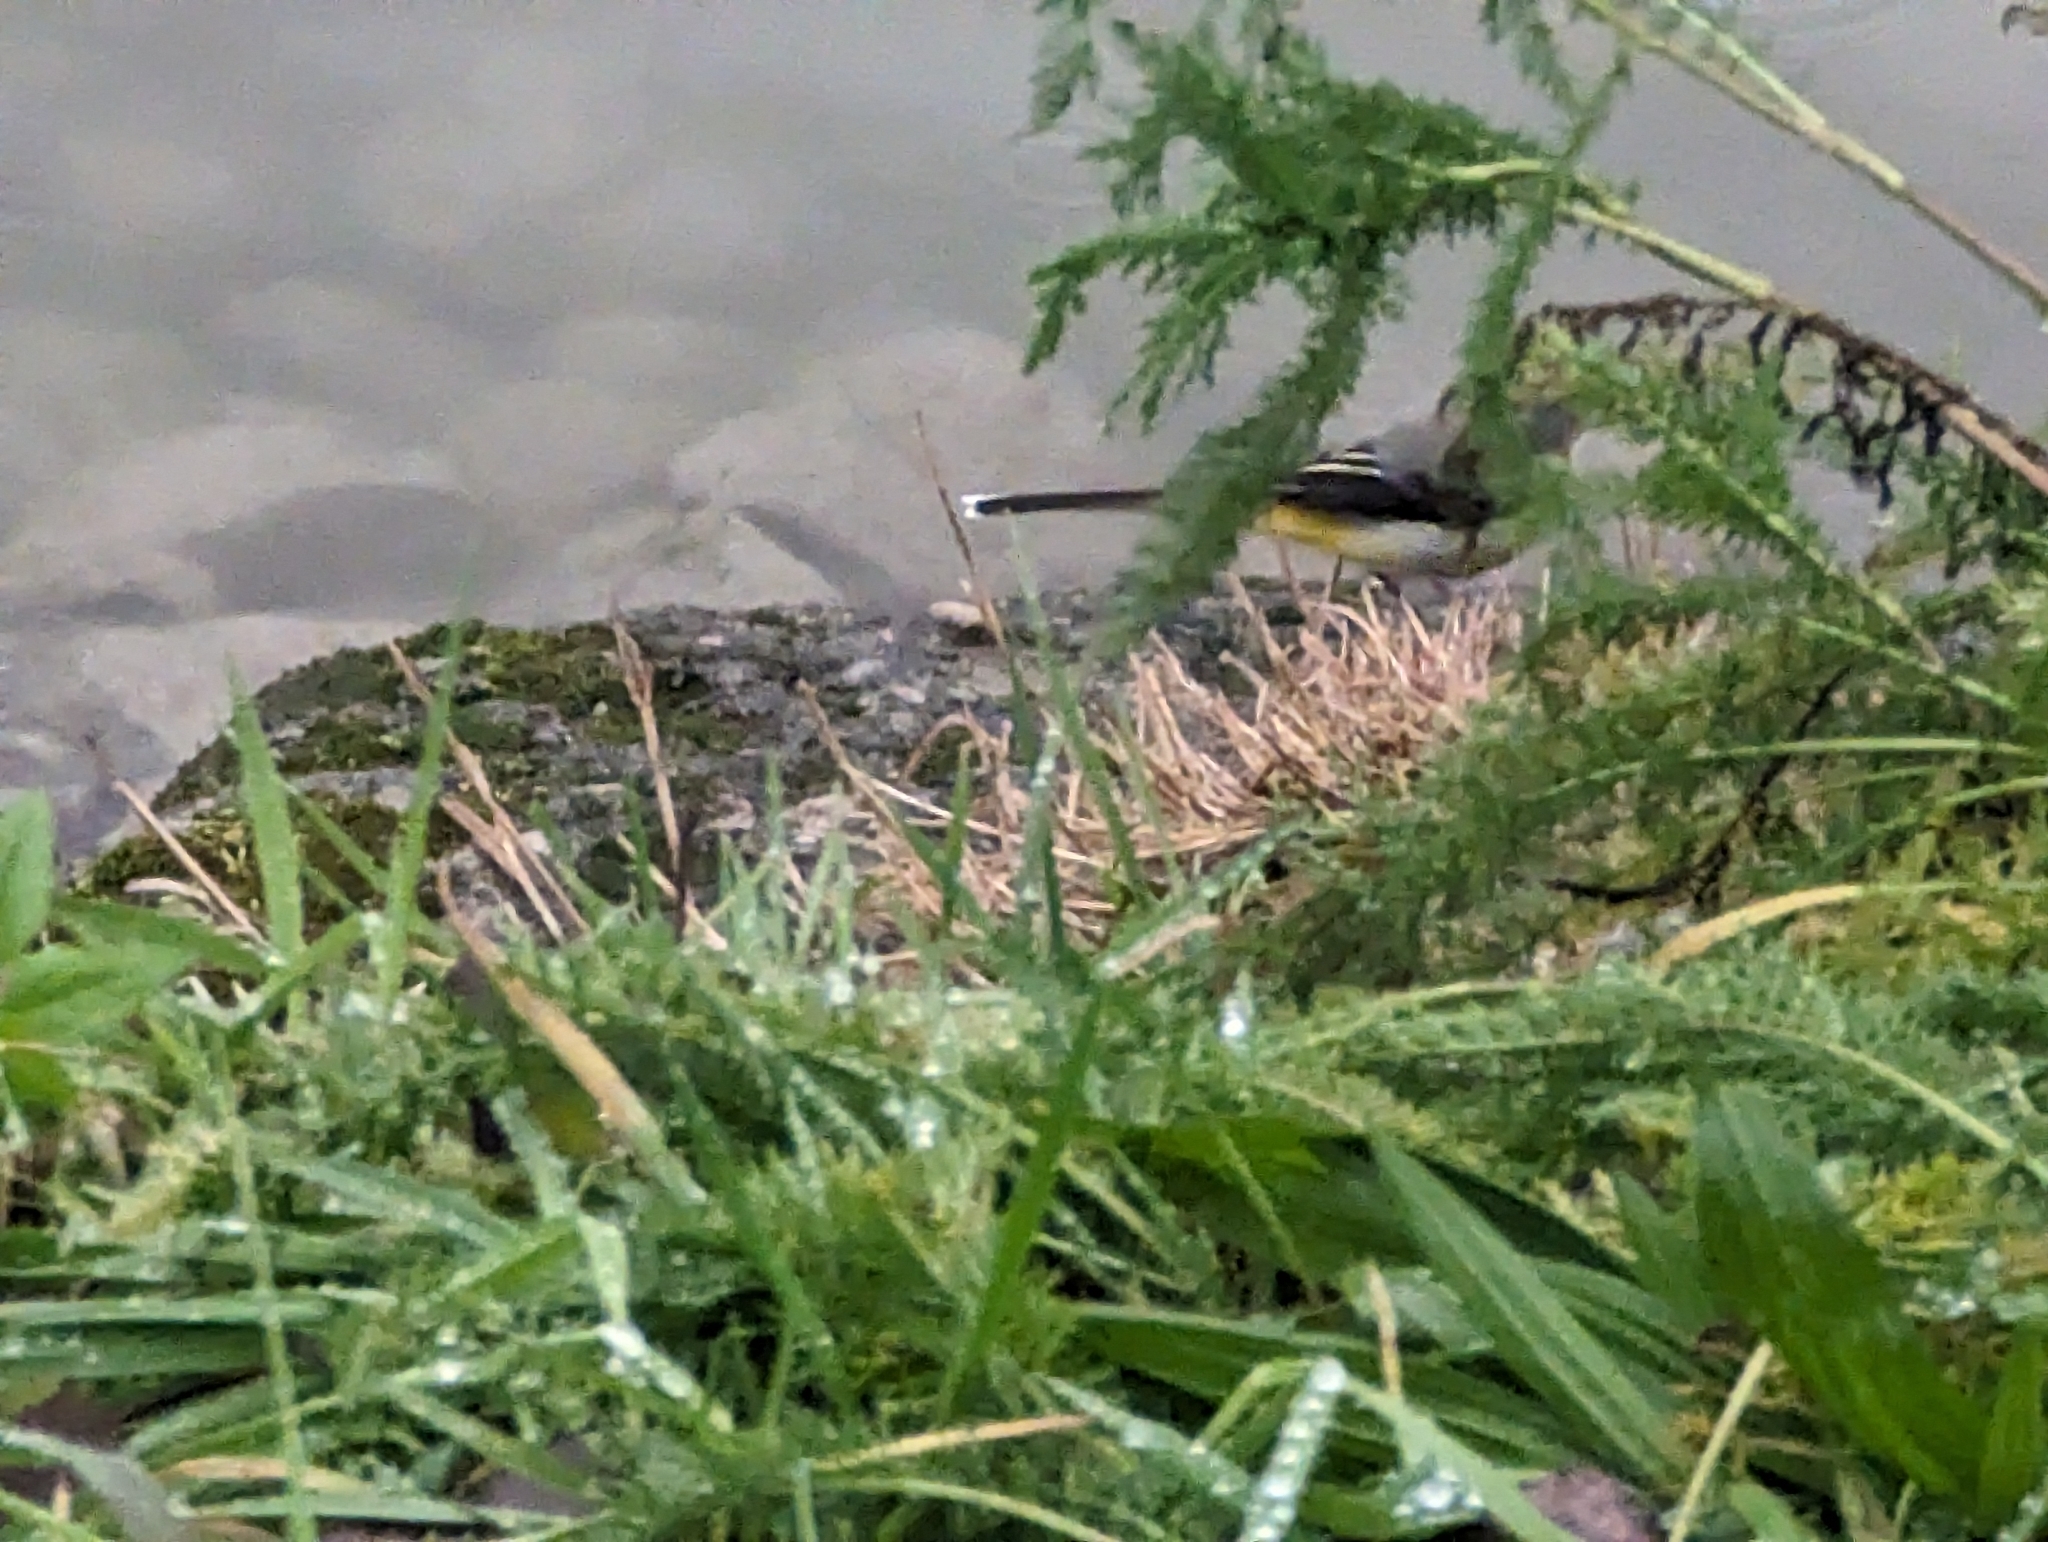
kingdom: Animalia
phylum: Chordata
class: Aves
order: Passeriformes
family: Motacillidae
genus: Motacilla
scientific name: Motacilla cinerea
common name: Grey wagtail
